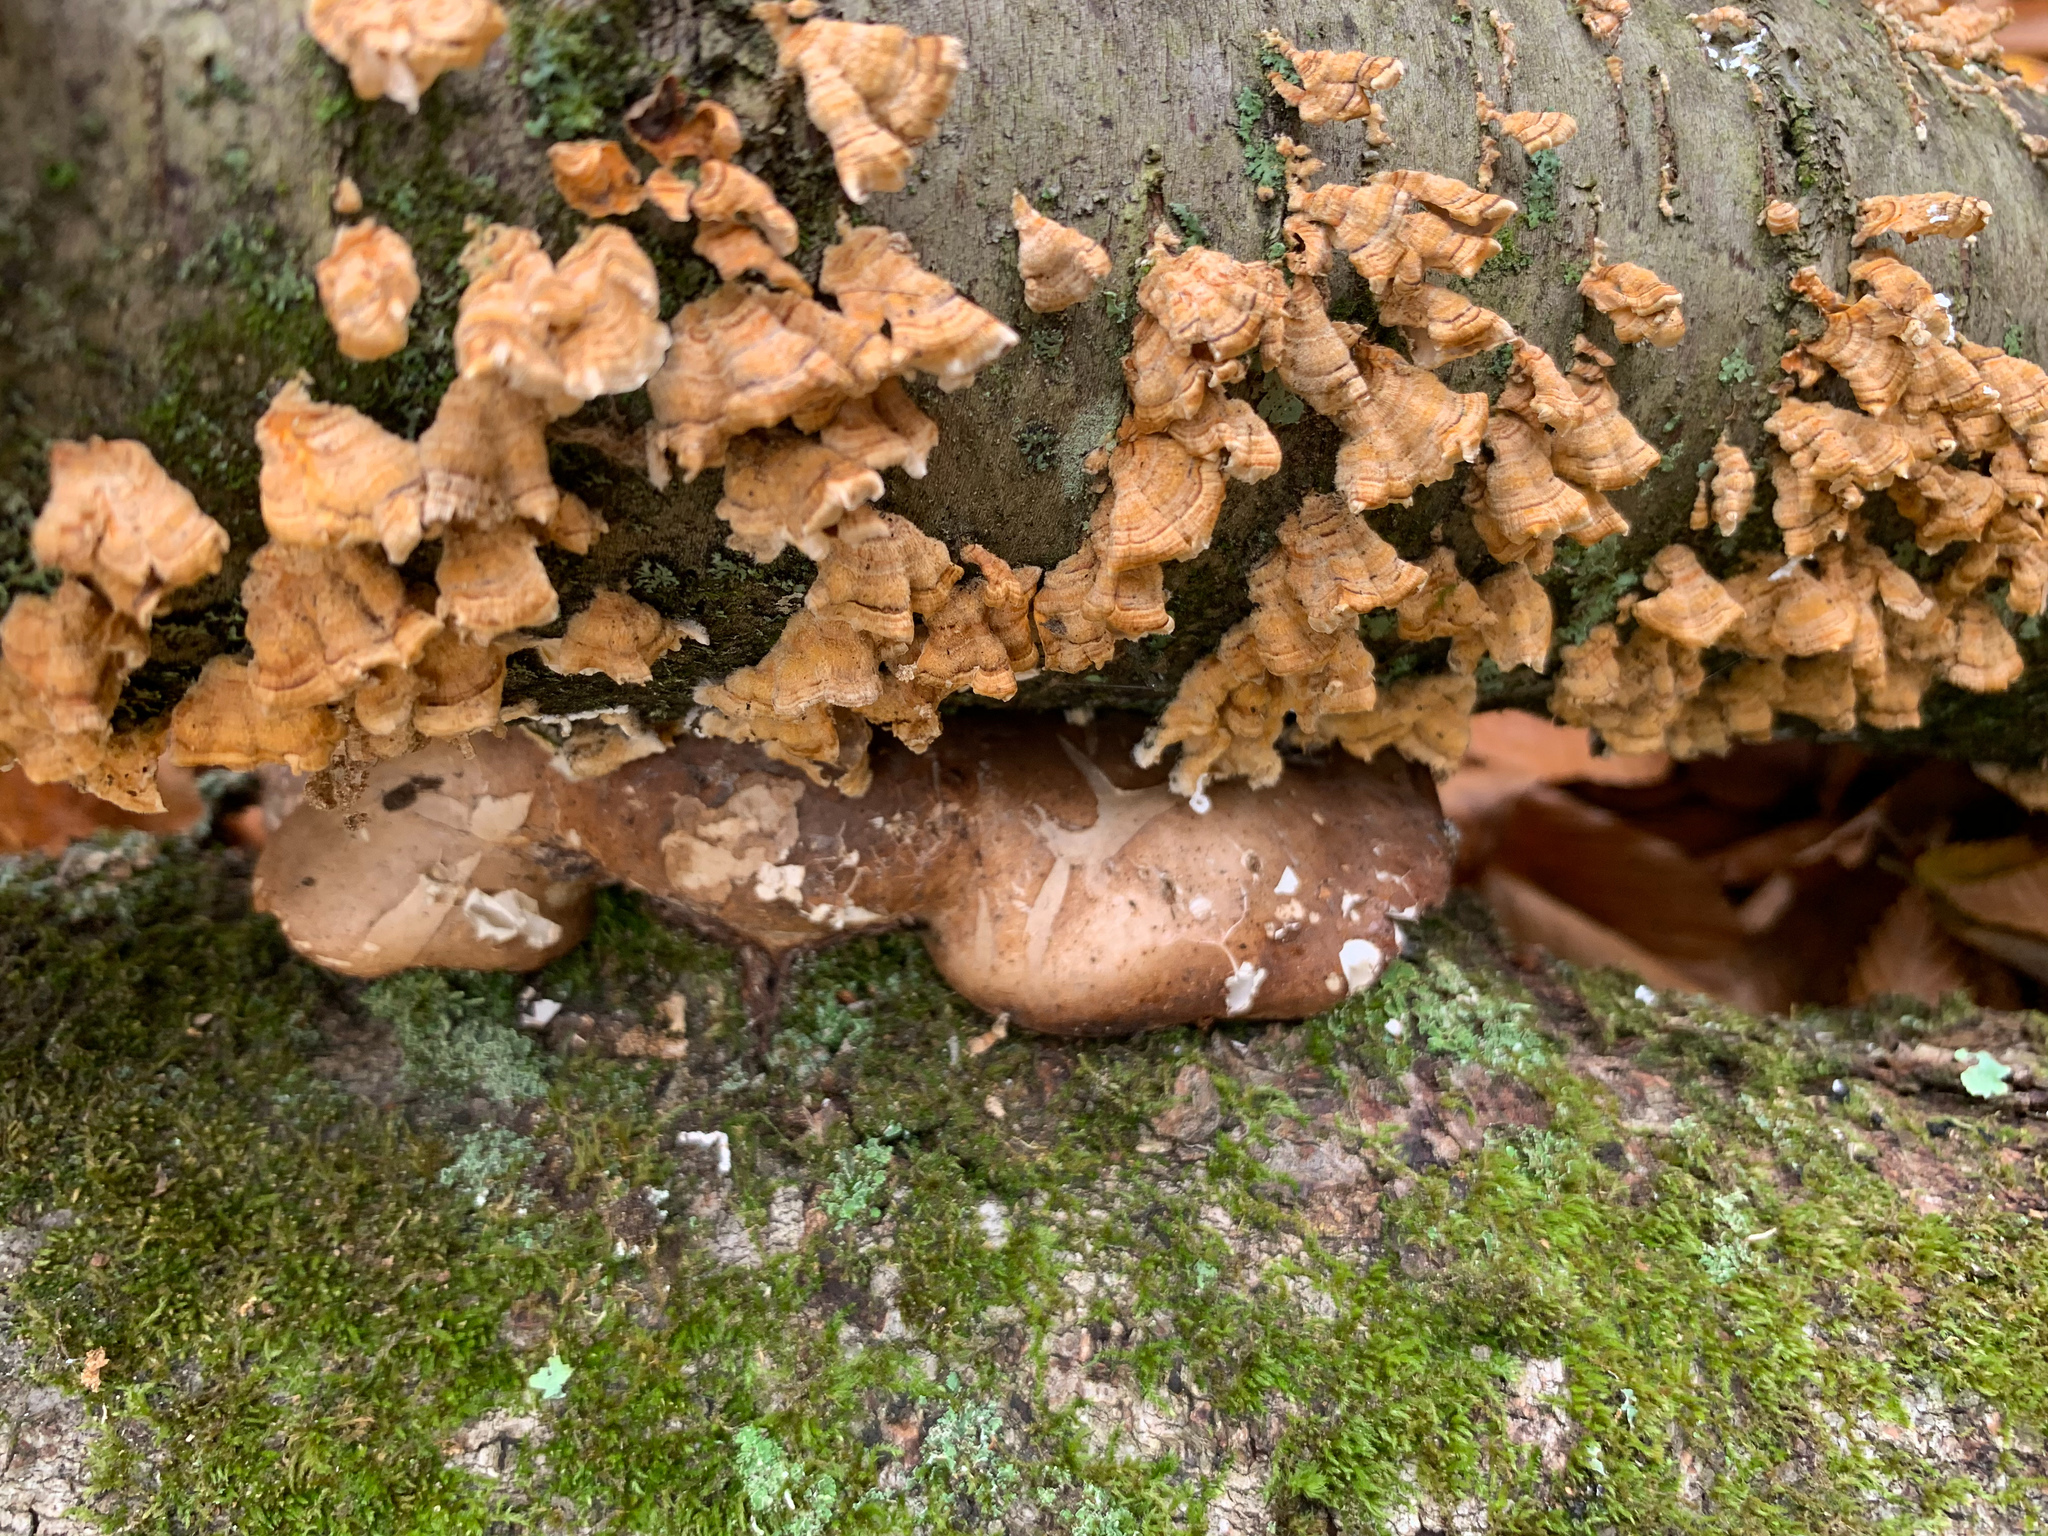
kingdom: Fungi
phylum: Basidiomycota
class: Agaricomycetes
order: Polyporales
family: Fomitopsidaceae
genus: Fomitopsis
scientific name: Fomitopsis betulina
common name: Birch polypore
